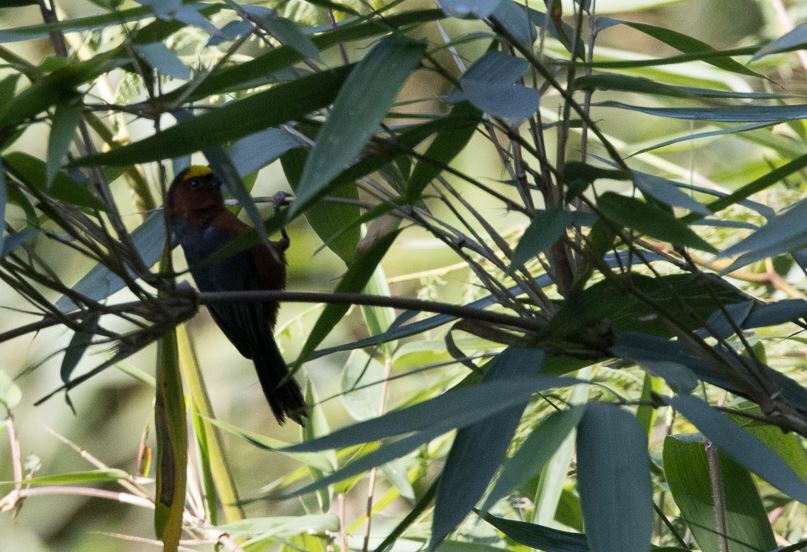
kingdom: Animalia
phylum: Chordata
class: Aves
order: Passeriformes
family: Thraupidae
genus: Catamblyrhynchus
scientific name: Catamblyrhynchus diadema
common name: Plushcap
